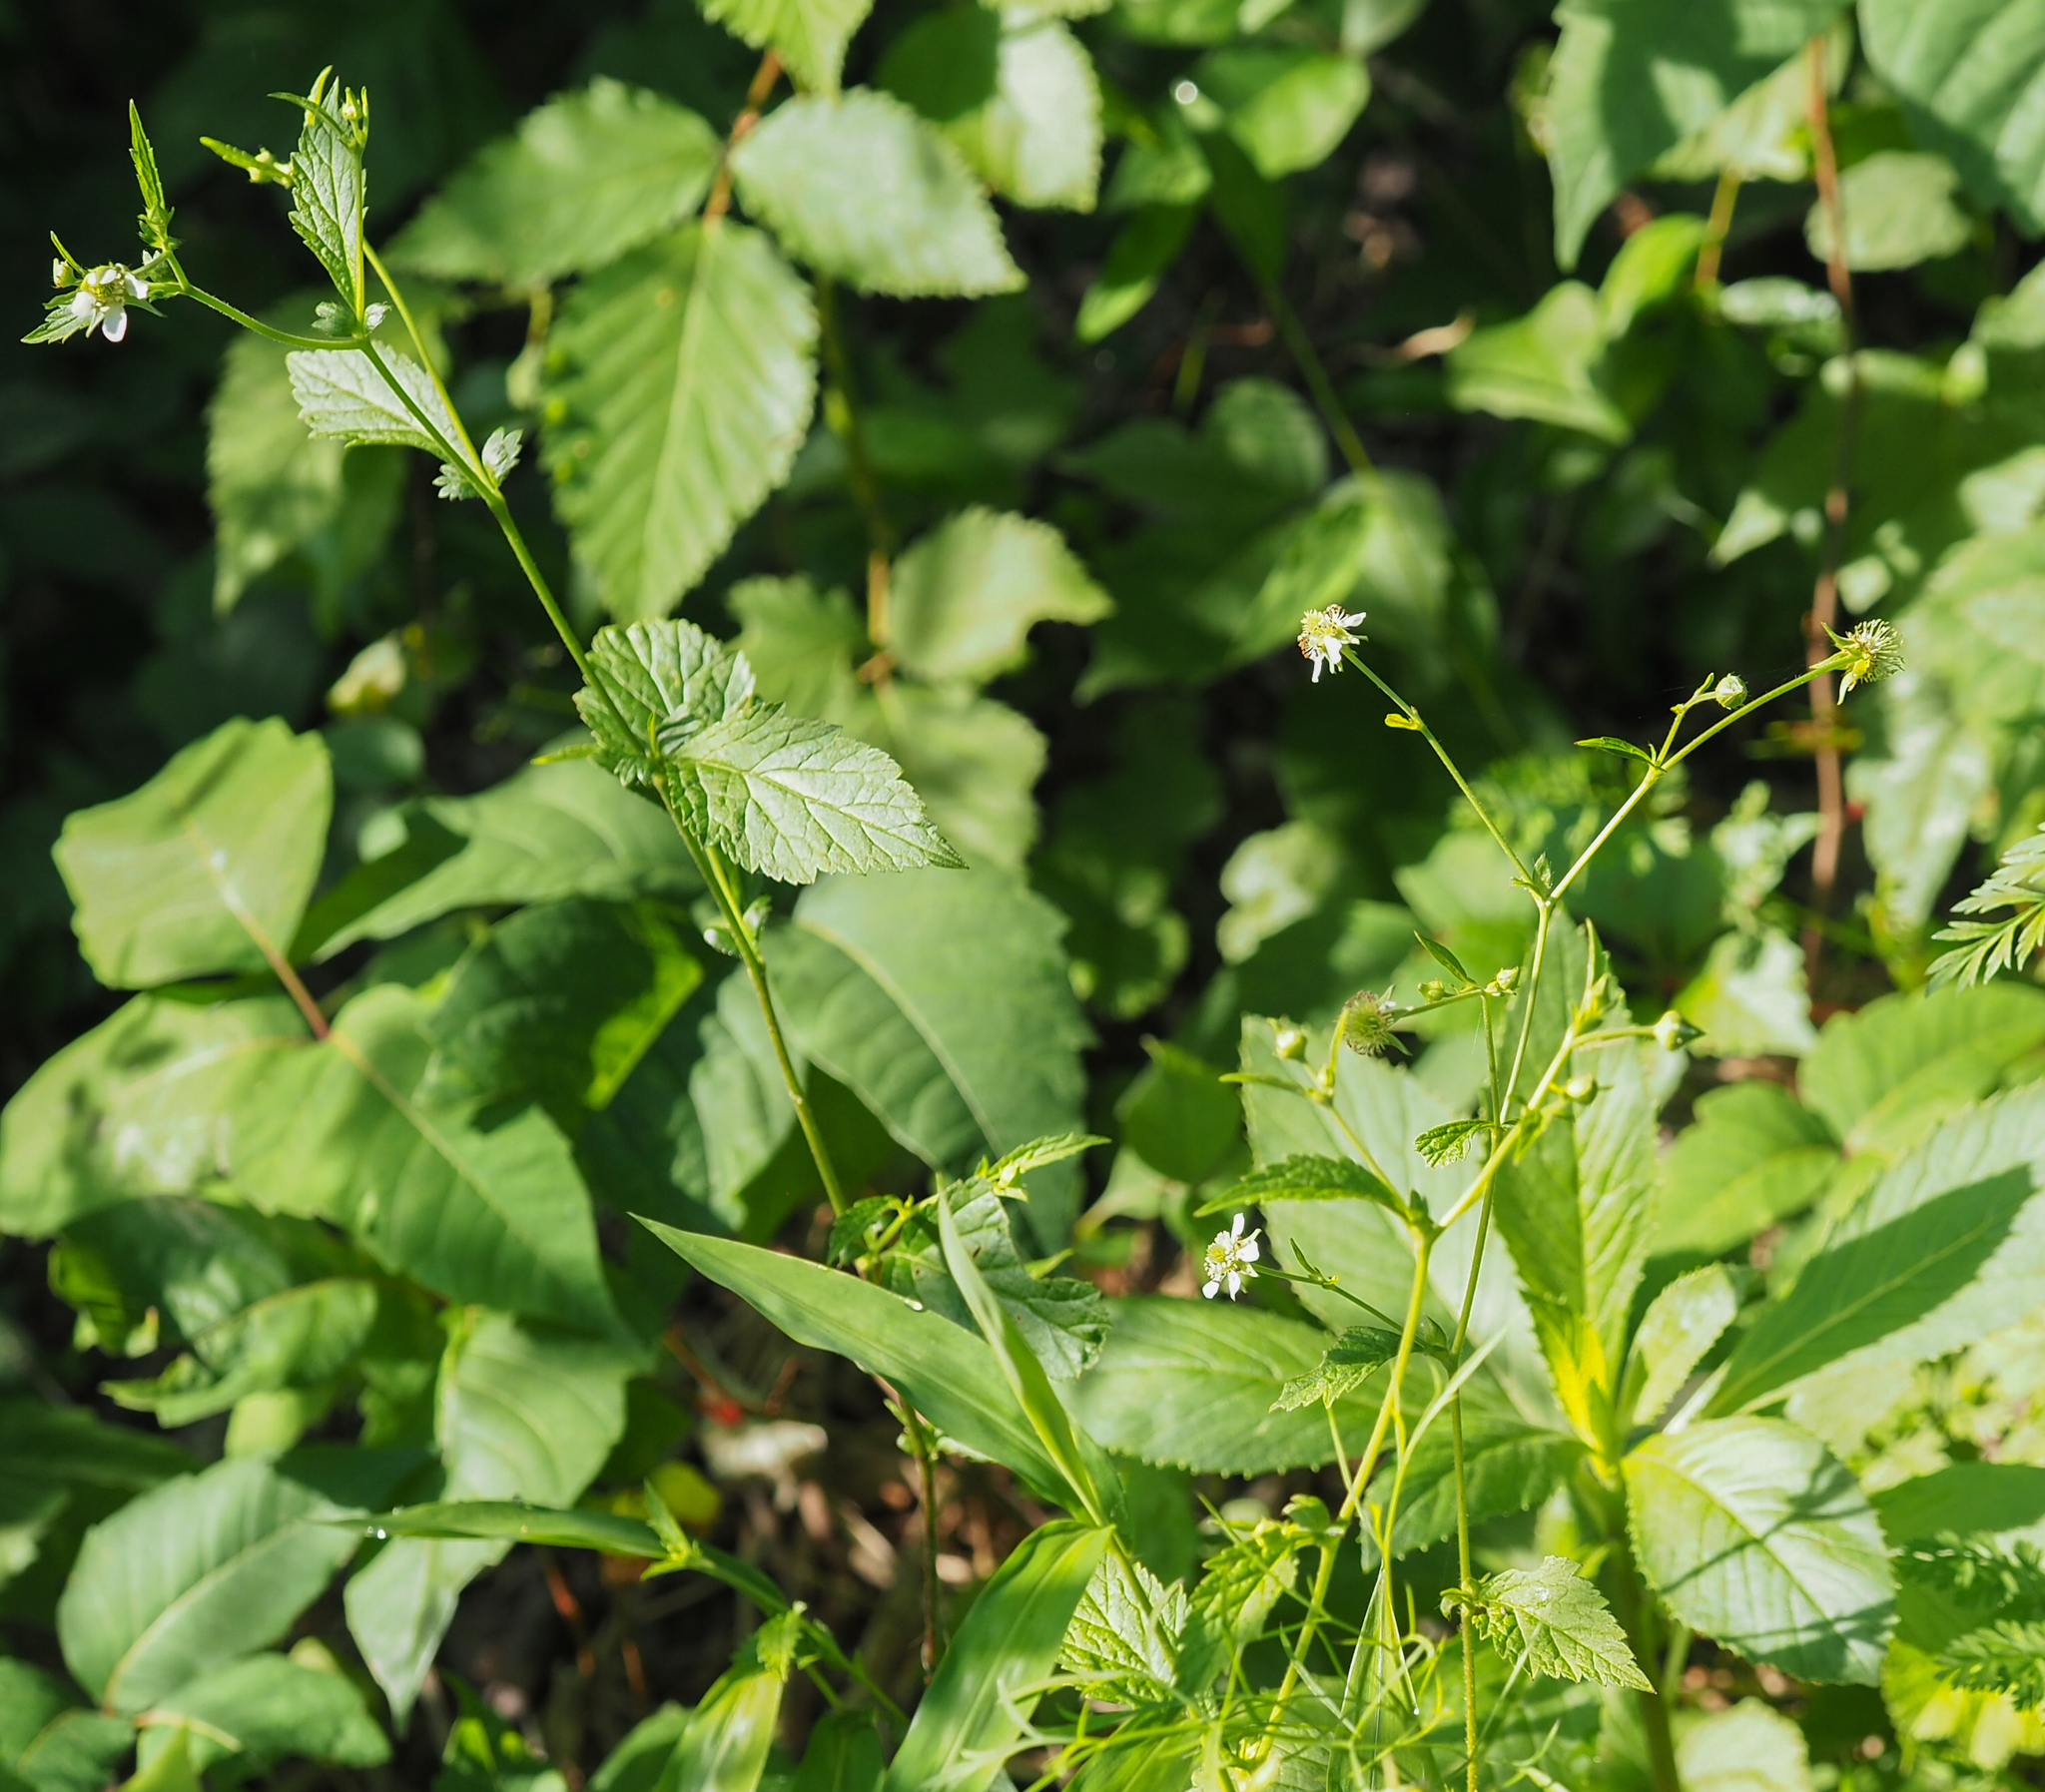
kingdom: Plantae
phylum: Tracheophyta
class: Magnoliopsida
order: Rosales
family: Rosaceae
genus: Geum
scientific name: Geum canadense
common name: White avens
